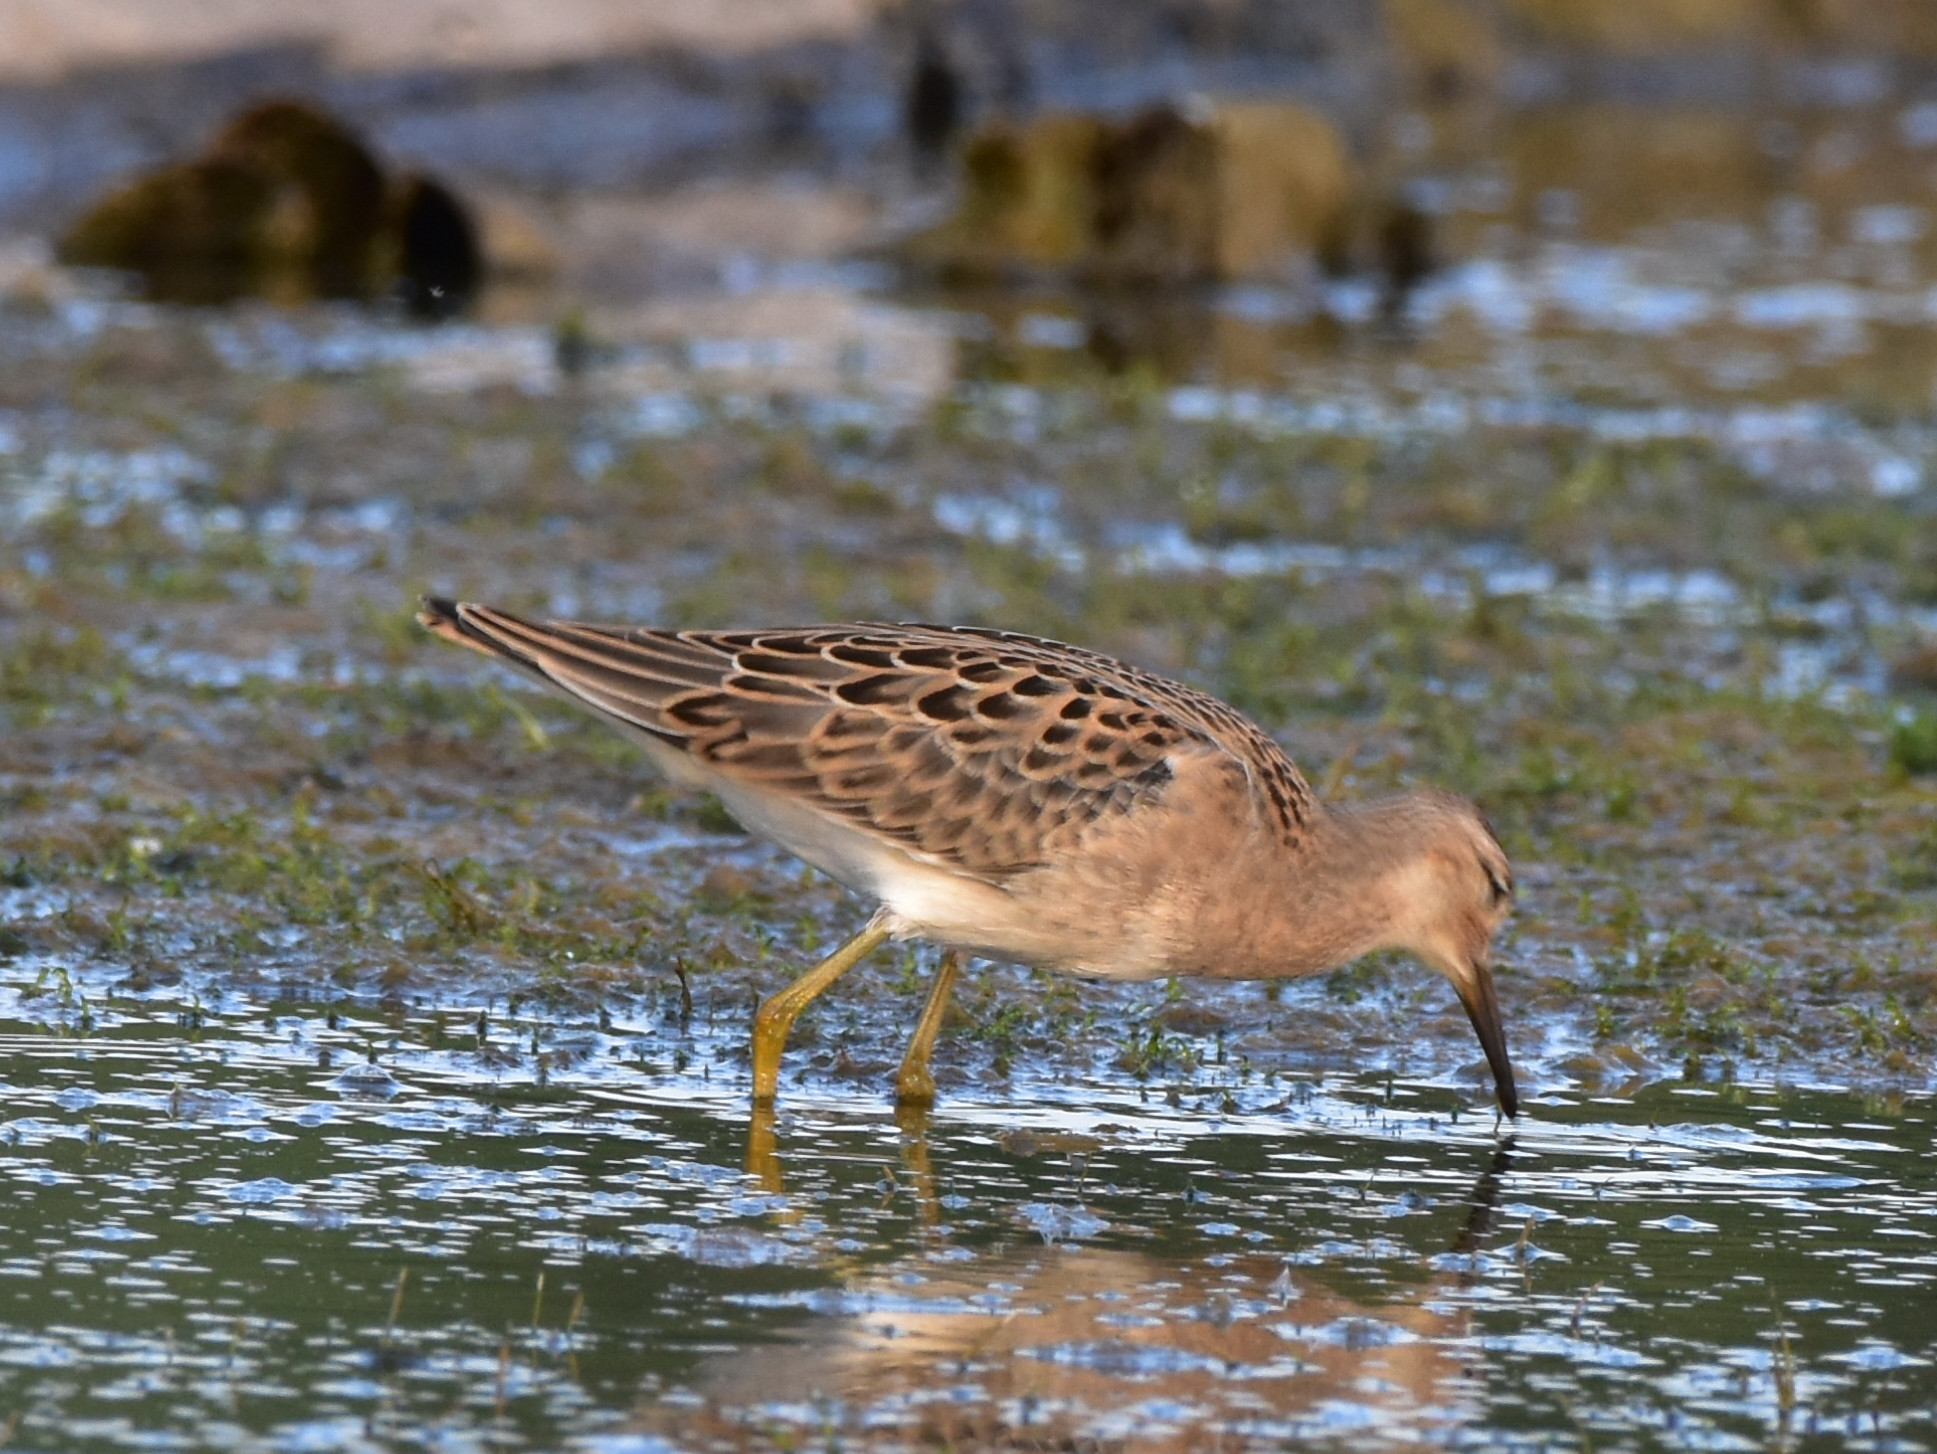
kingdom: Animalia
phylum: Chordata
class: Aves
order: Charadriiformes
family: Scolopacidae
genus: Calidris
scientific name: Calidris pugnax
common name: Ruff
